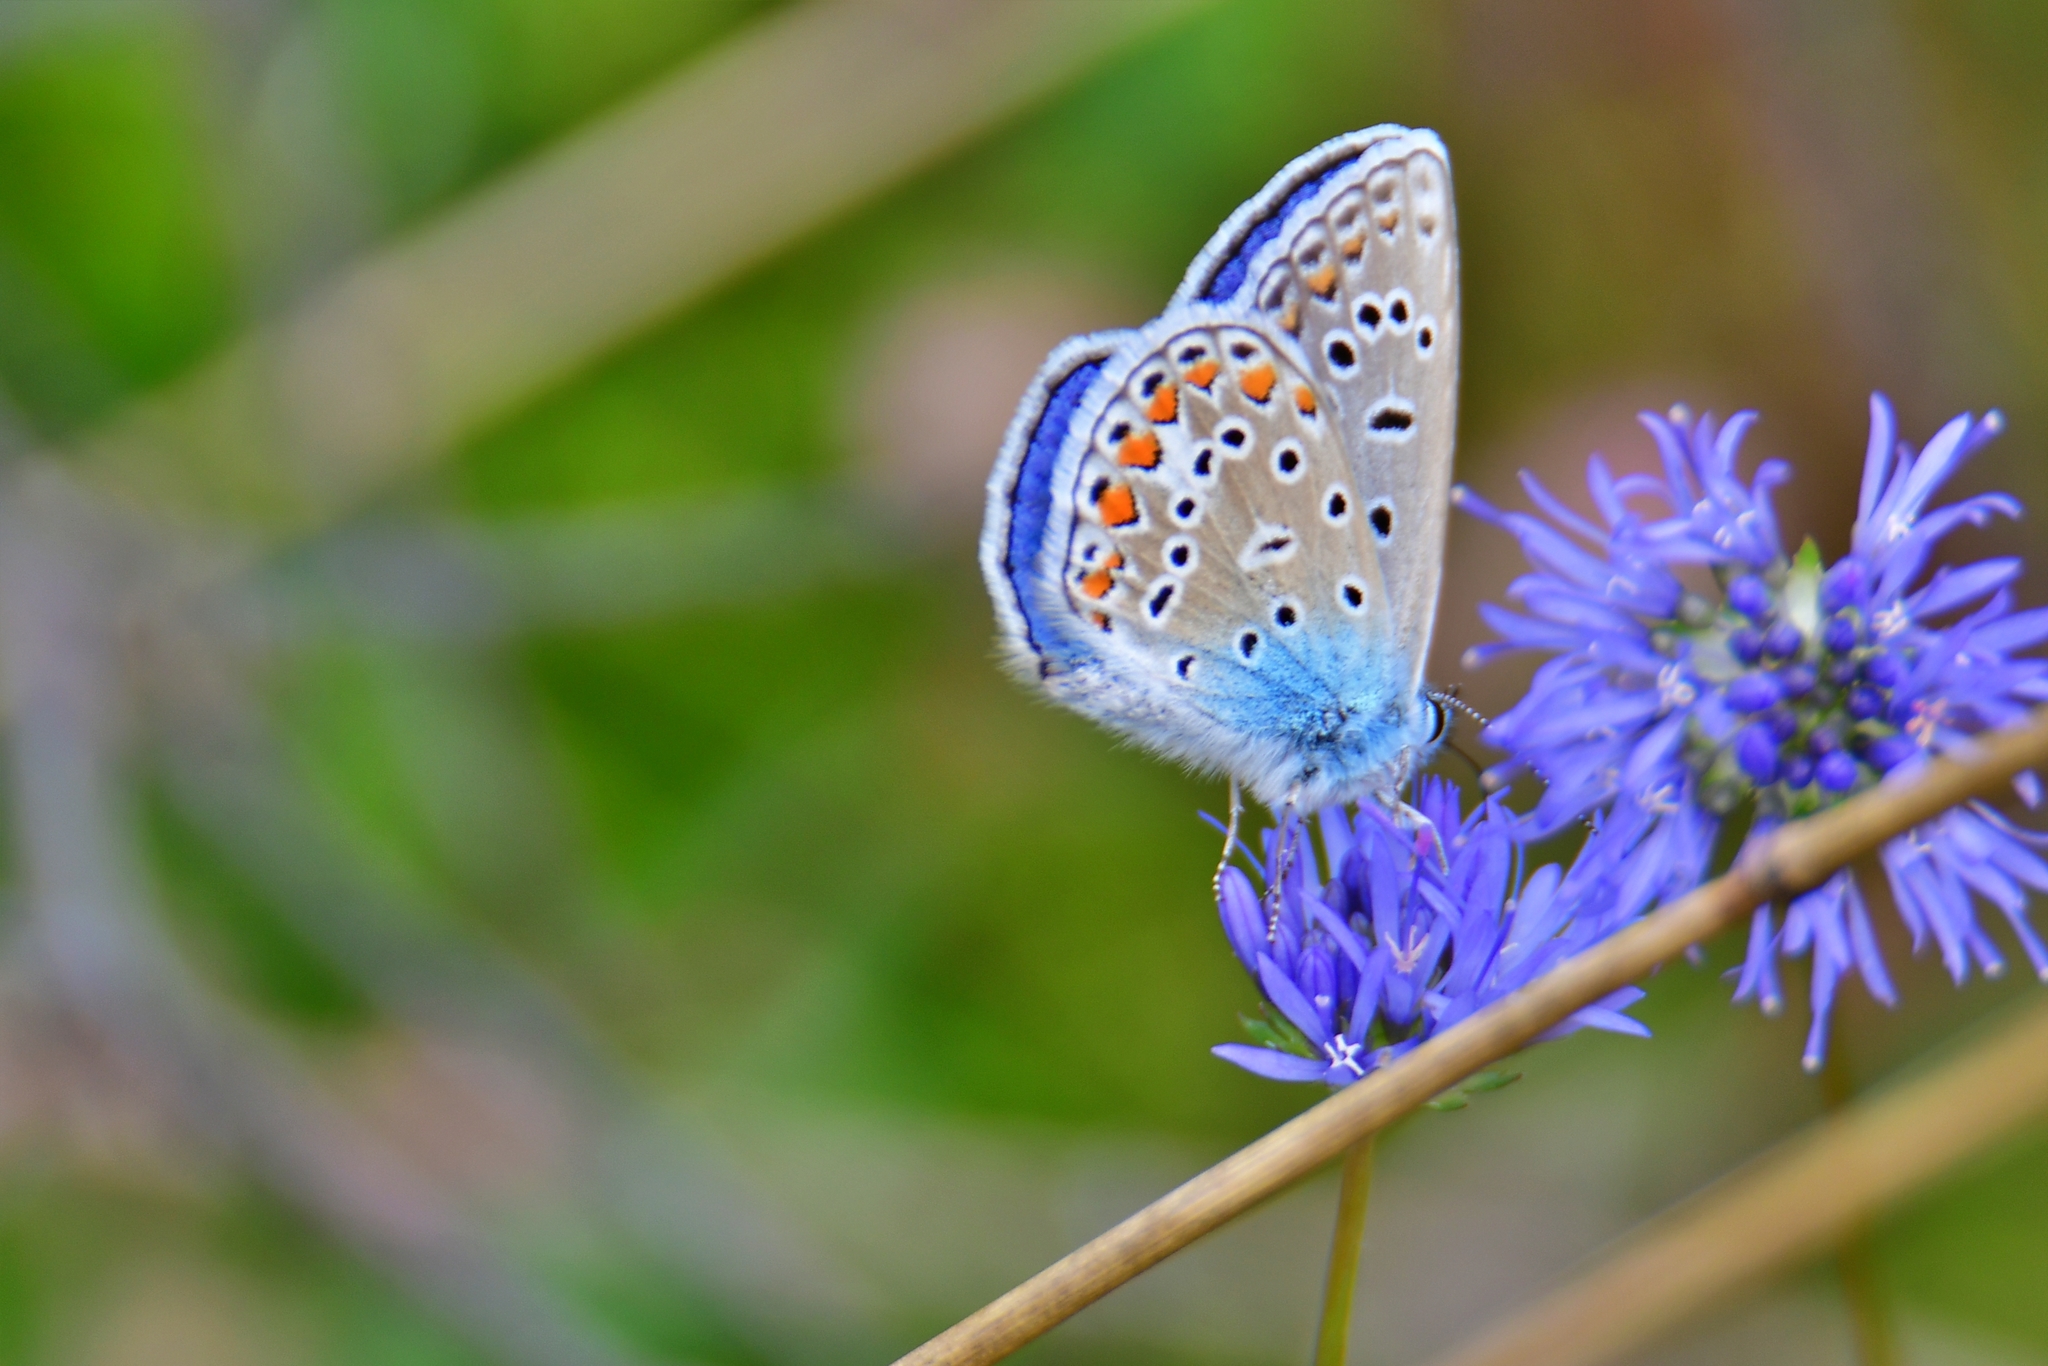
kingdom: Animalia
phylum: Arthropoda
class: Insecta
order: Lepidoptera
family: Lycaenidae
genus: Polyommatus
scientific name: Polyommatus icarus
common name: Common blue
